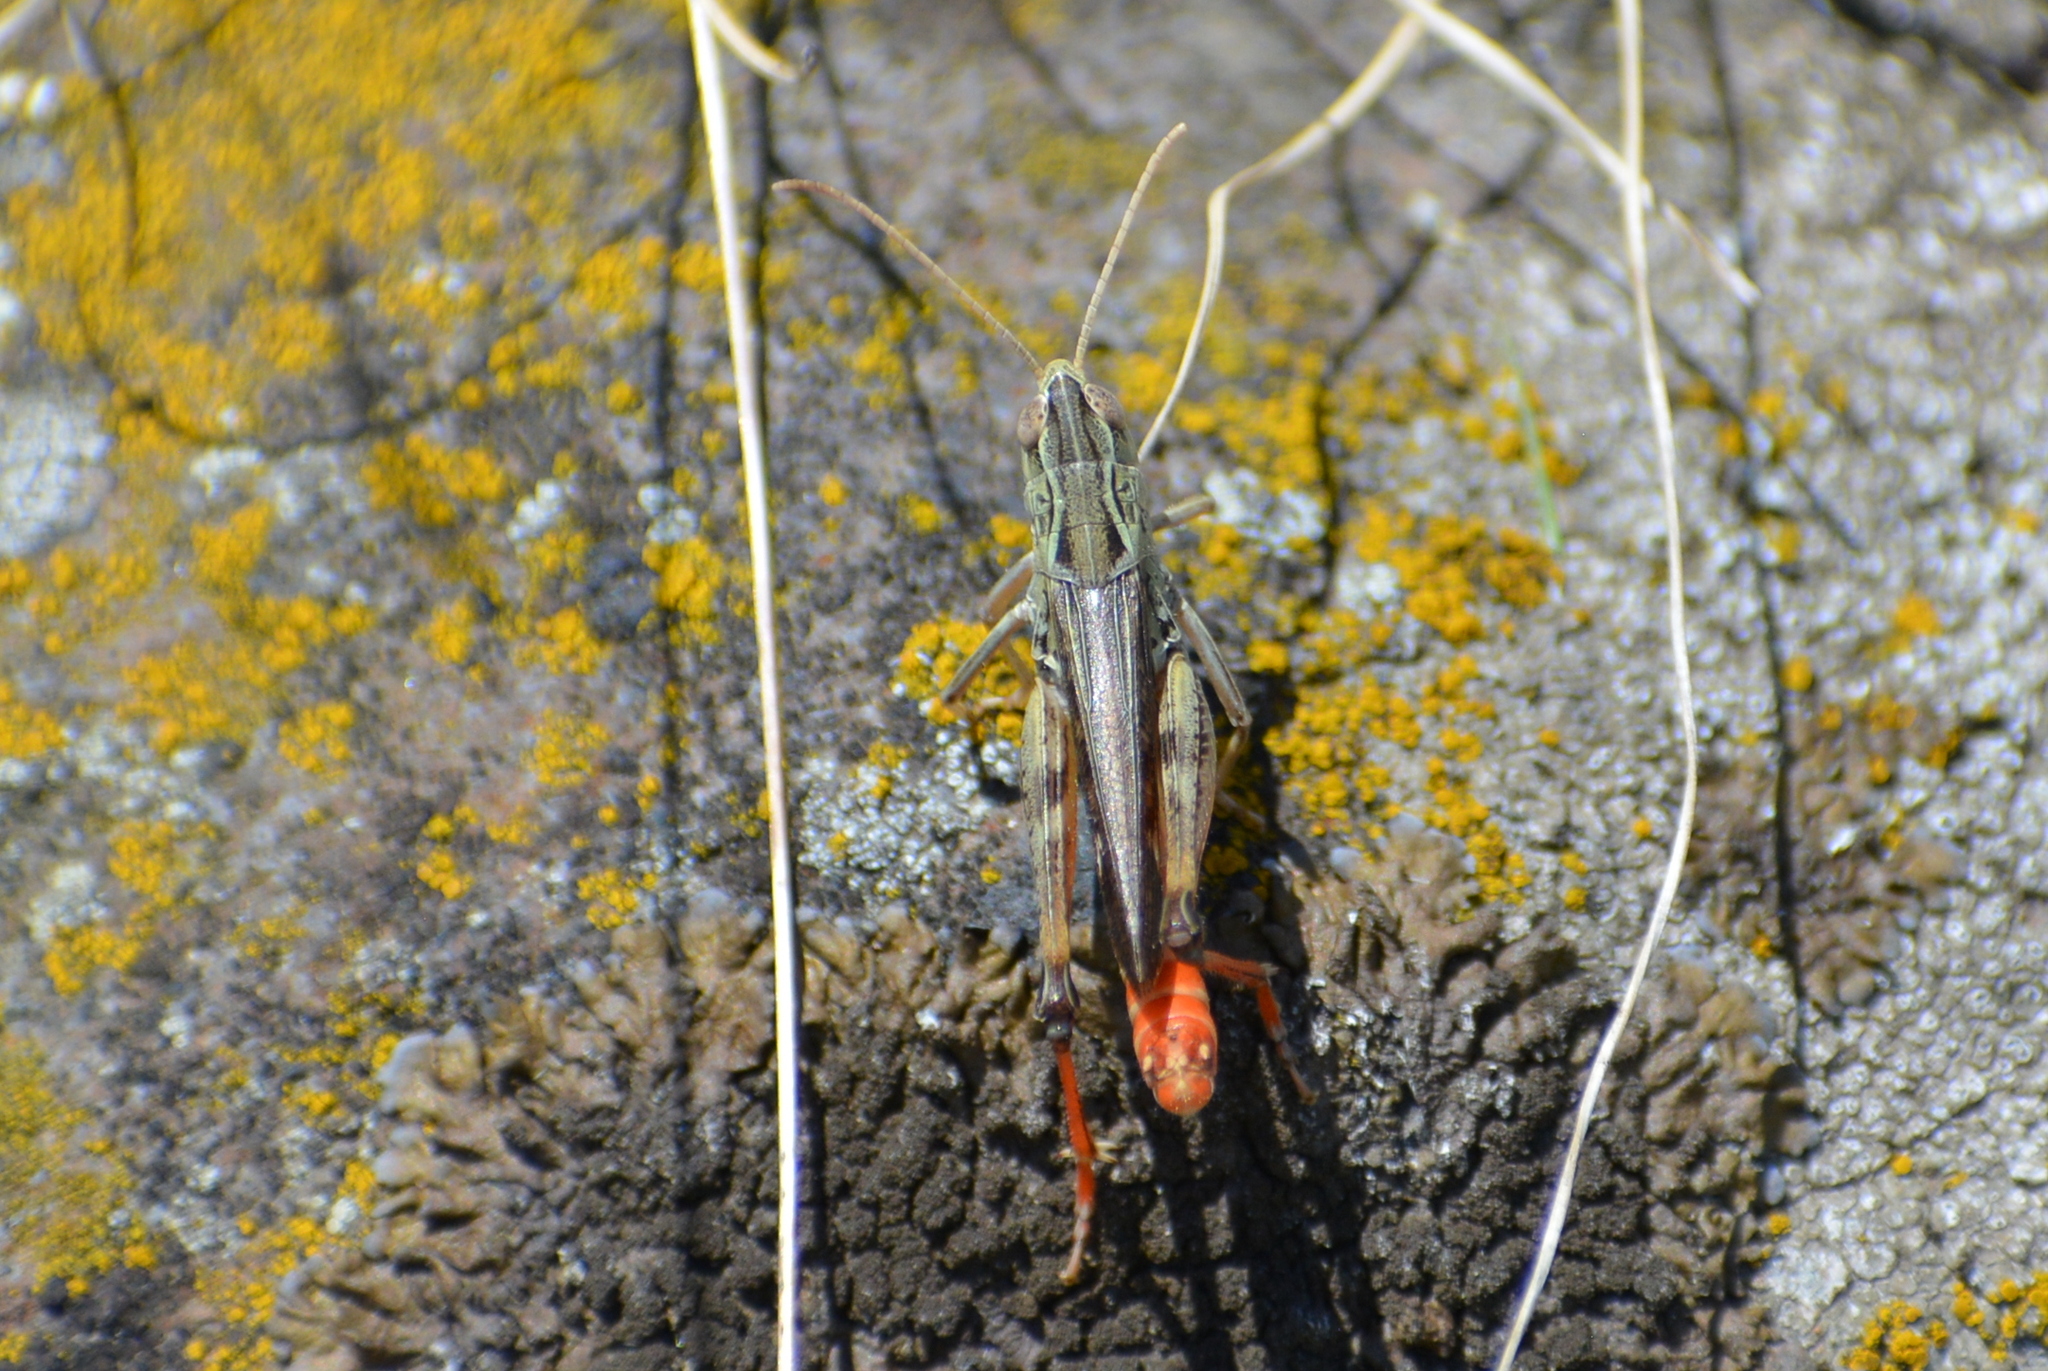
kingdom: Animalia
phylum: Arthropoda
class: Insecta
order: Orthoptera
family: Acrididae
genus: Stenobothrus
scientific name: Stenobothrus eurasius
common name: Eurasian toothed grasshopper
